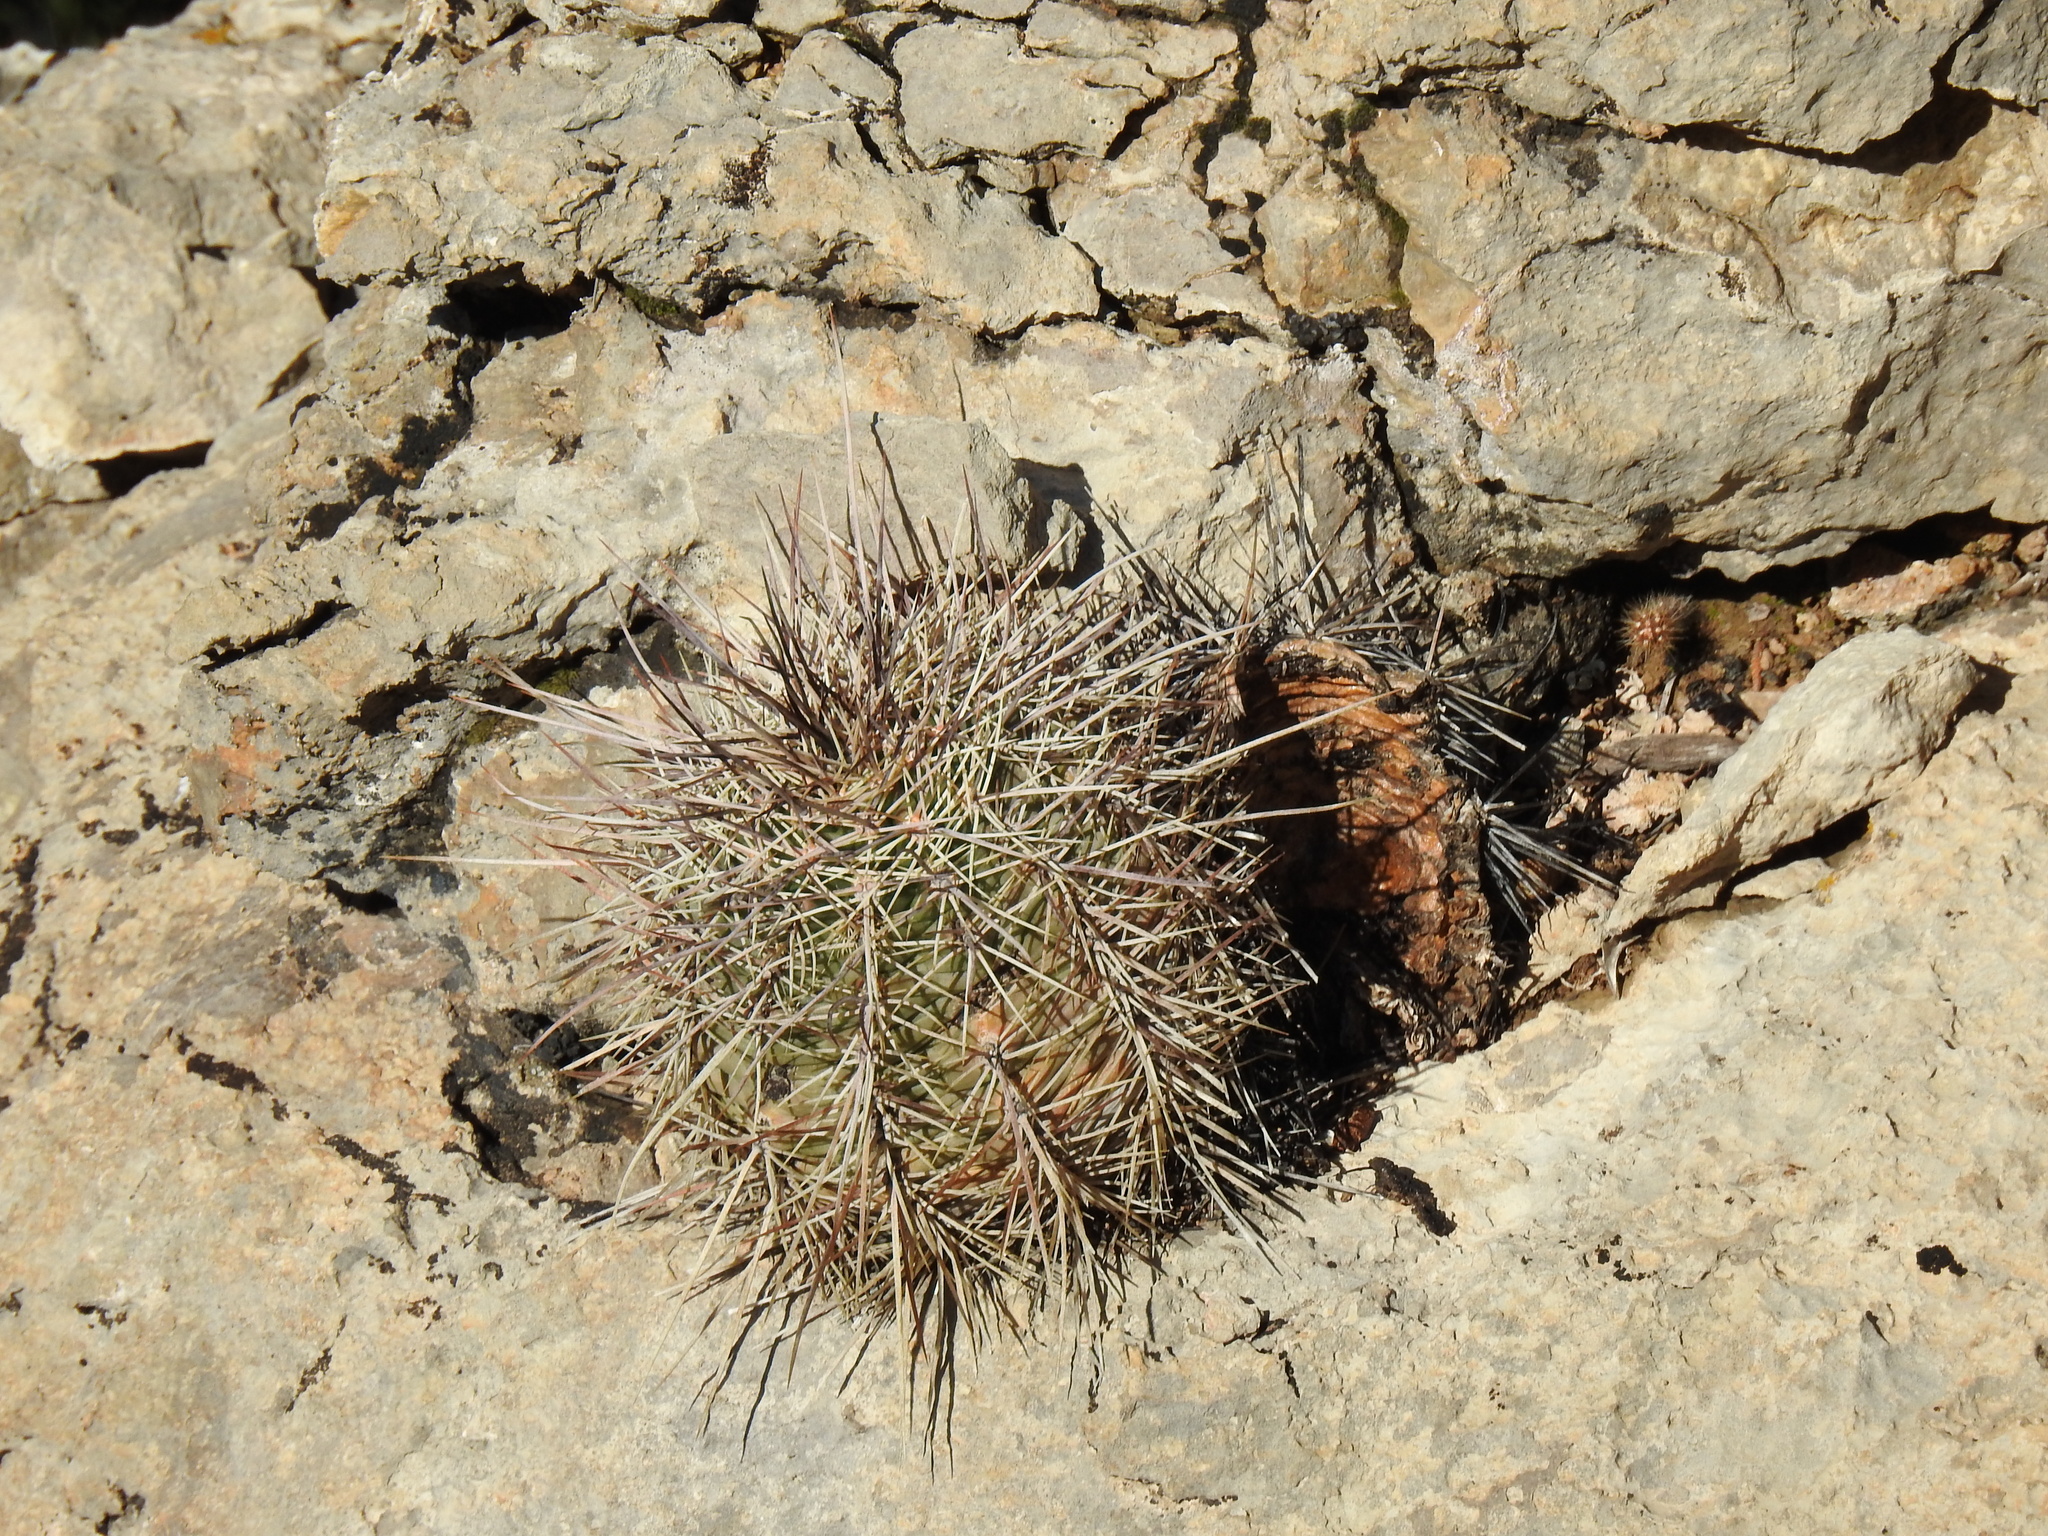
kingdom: Plantae
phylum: Tracheophyta
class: Magnoliopsida
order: Caryophyllales
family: Cactaceae
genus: Echinocereus
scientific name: Echinocereus coccineus
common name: Scarlet hedgehog cactus
